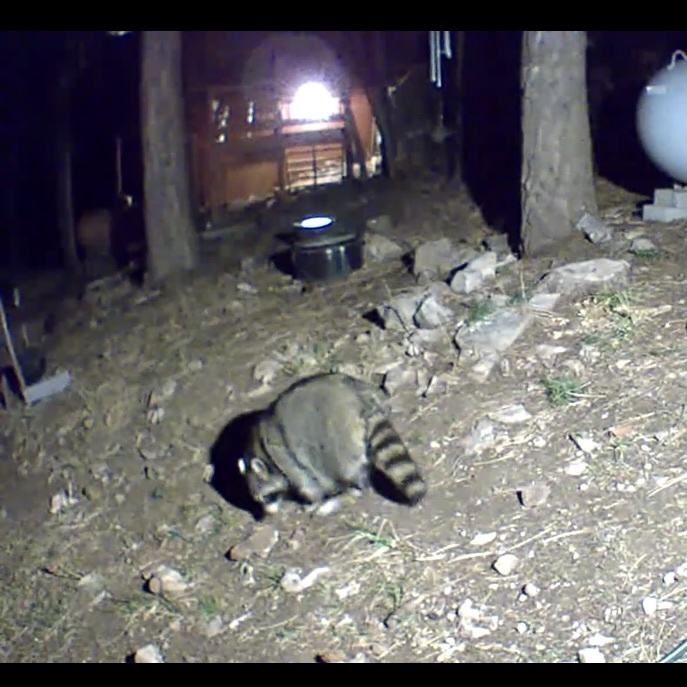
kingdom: Animalia
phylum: Chordata
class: Mammalia
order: Carnivora
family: Procyonidae
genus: Procyon
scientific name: Procyon lotor
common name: Raccoon
